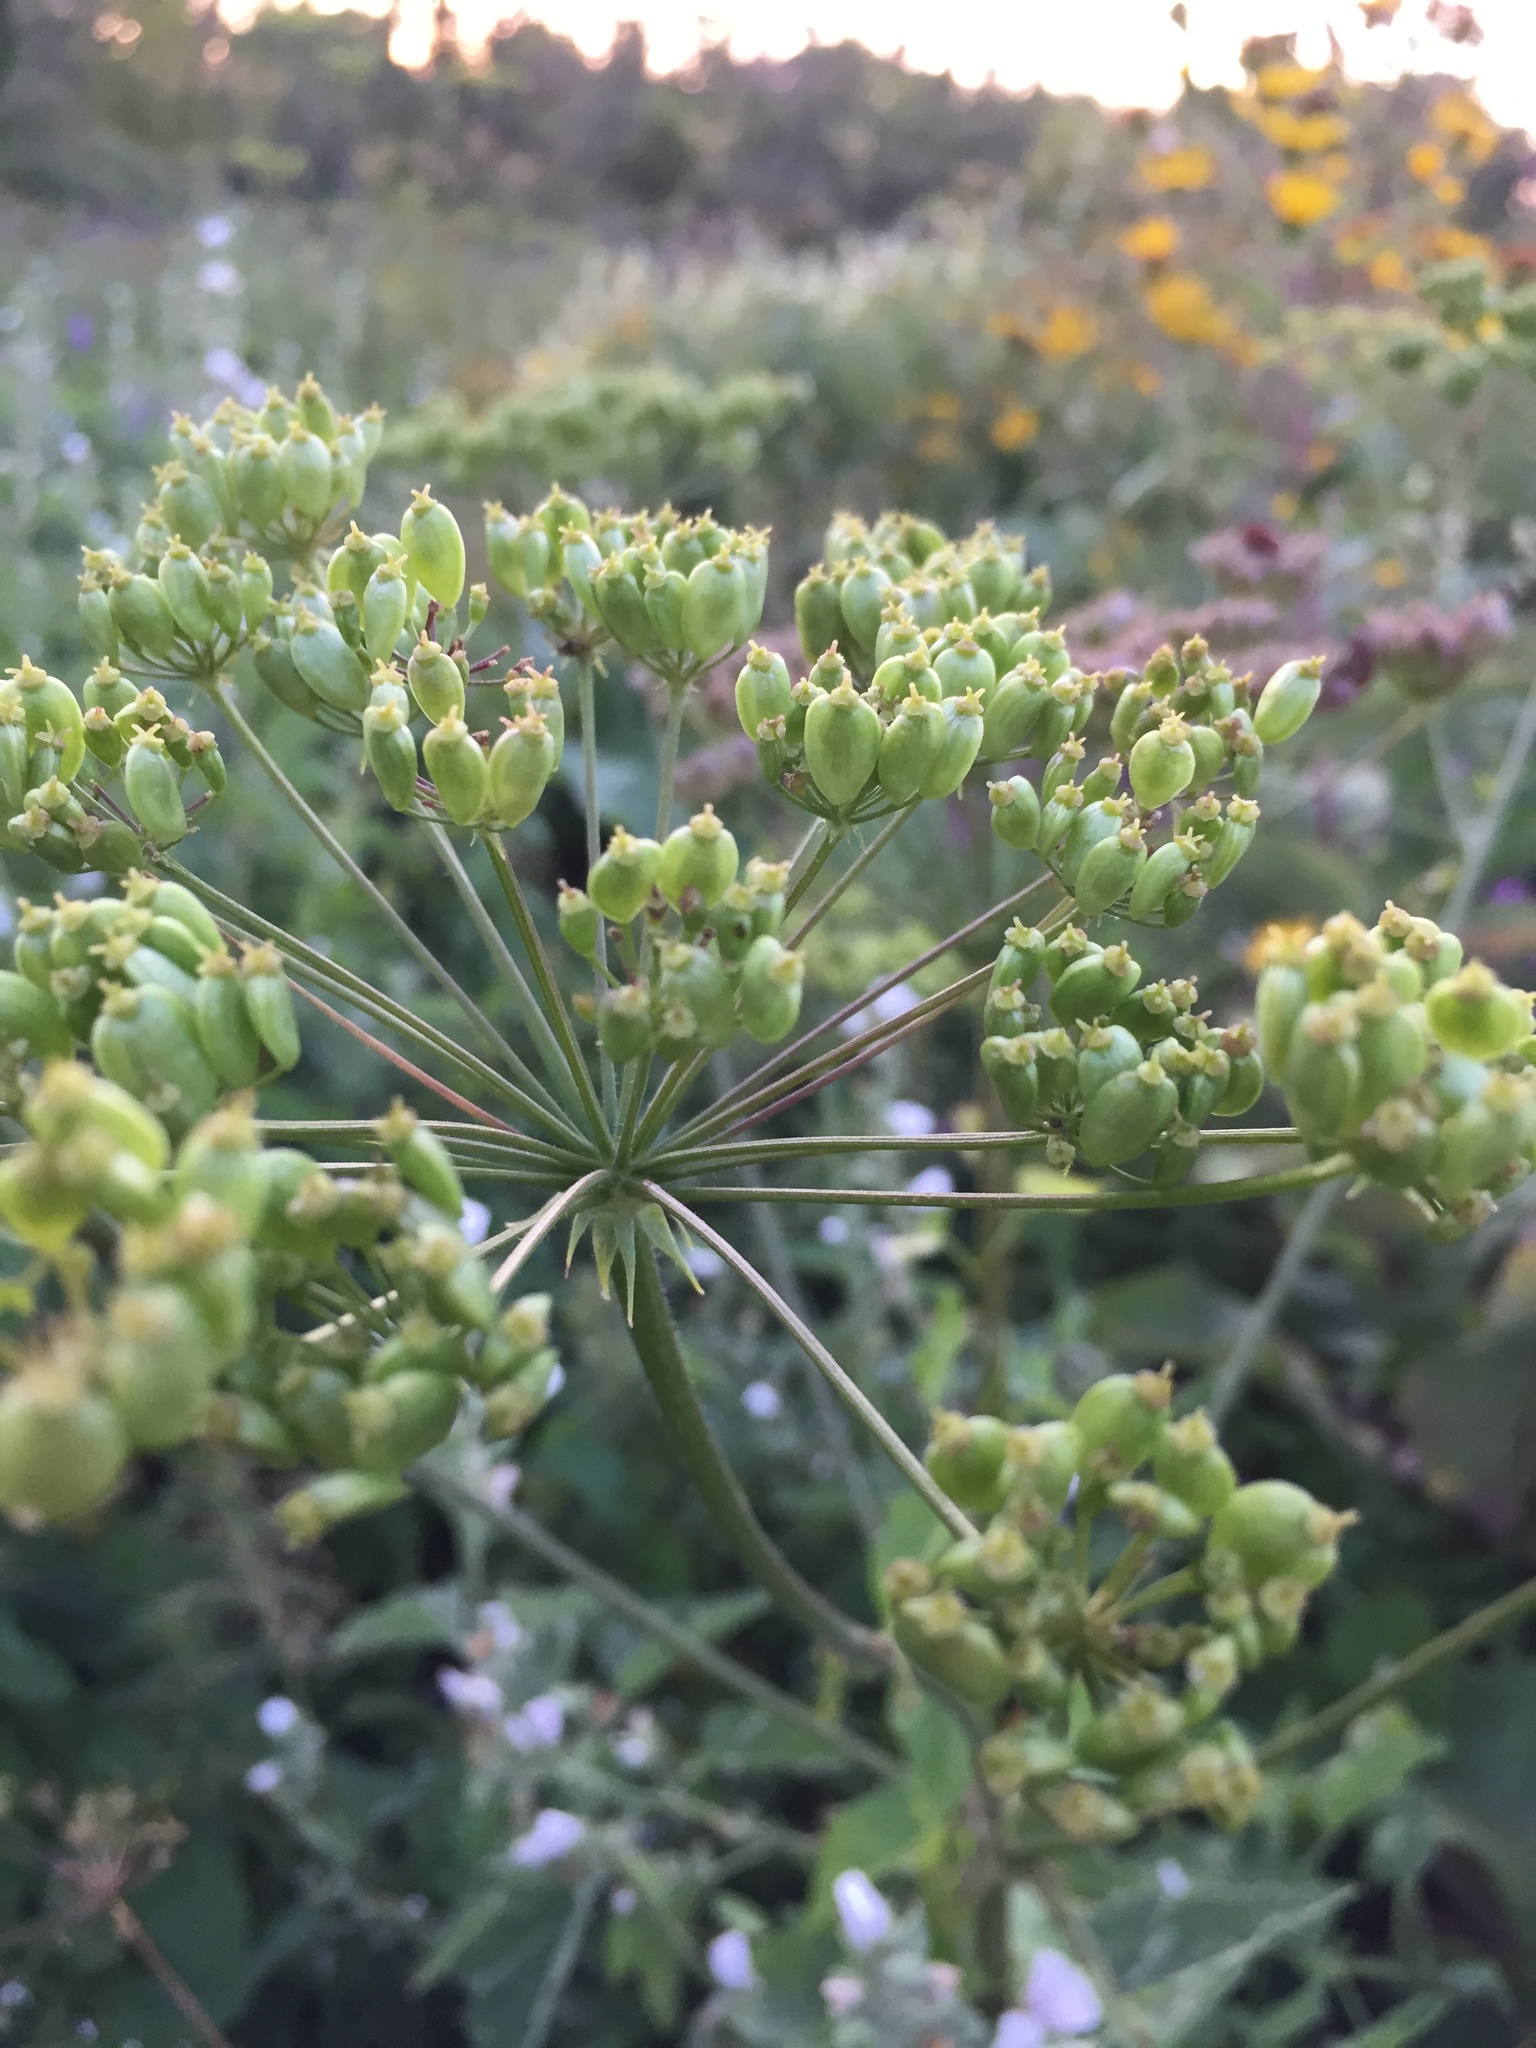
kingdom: Plantae
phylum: Tracheophyta
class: Magnoliopsida
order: Apiales
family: Apiaceae
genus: Heracleum
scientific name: Heracleum sphondylium
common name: Hogweed
